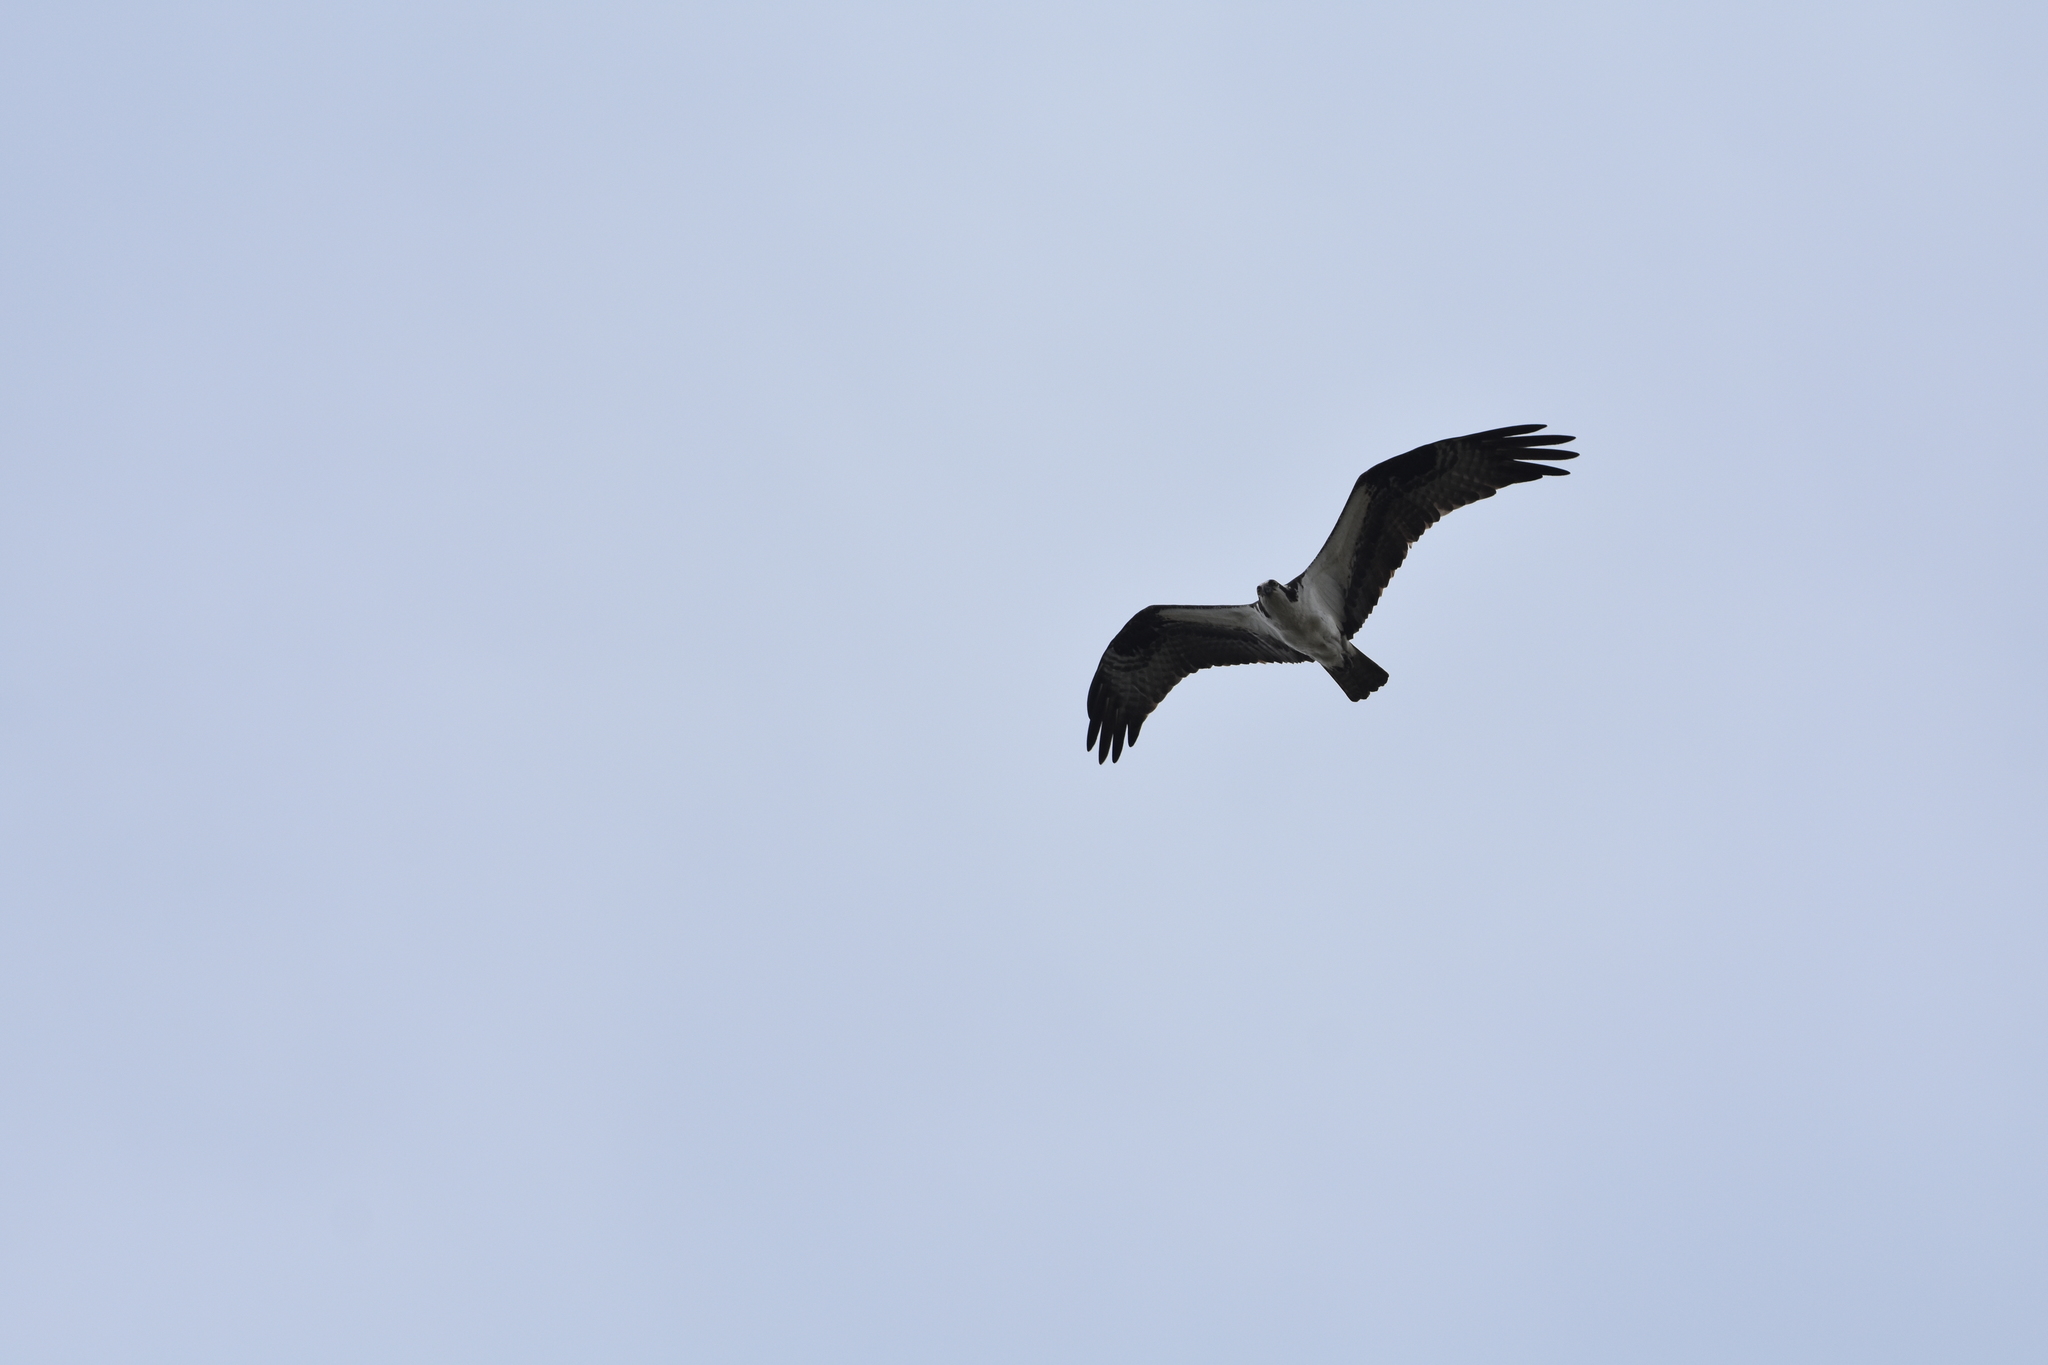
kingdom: Animalia
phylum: Chordata
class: Aves
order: Accipitriformes
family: Pandionidae
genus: Pandion
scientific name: Pandion haliaetus
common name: Osprey
